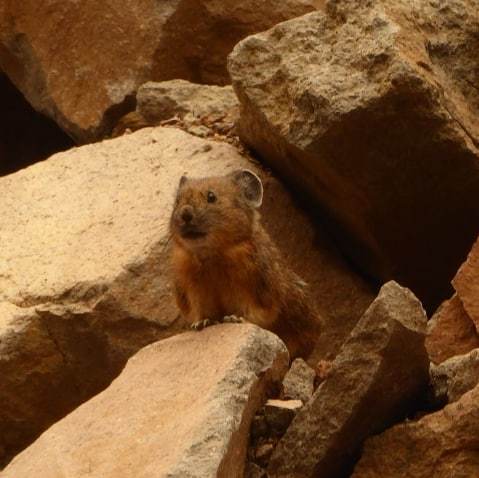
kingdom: Animalia
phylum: Chordata
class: Mammalia
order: Lagomorpha
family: Ochotonidae
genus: Ochotona
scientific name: Ochotona princeps
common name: American pika
